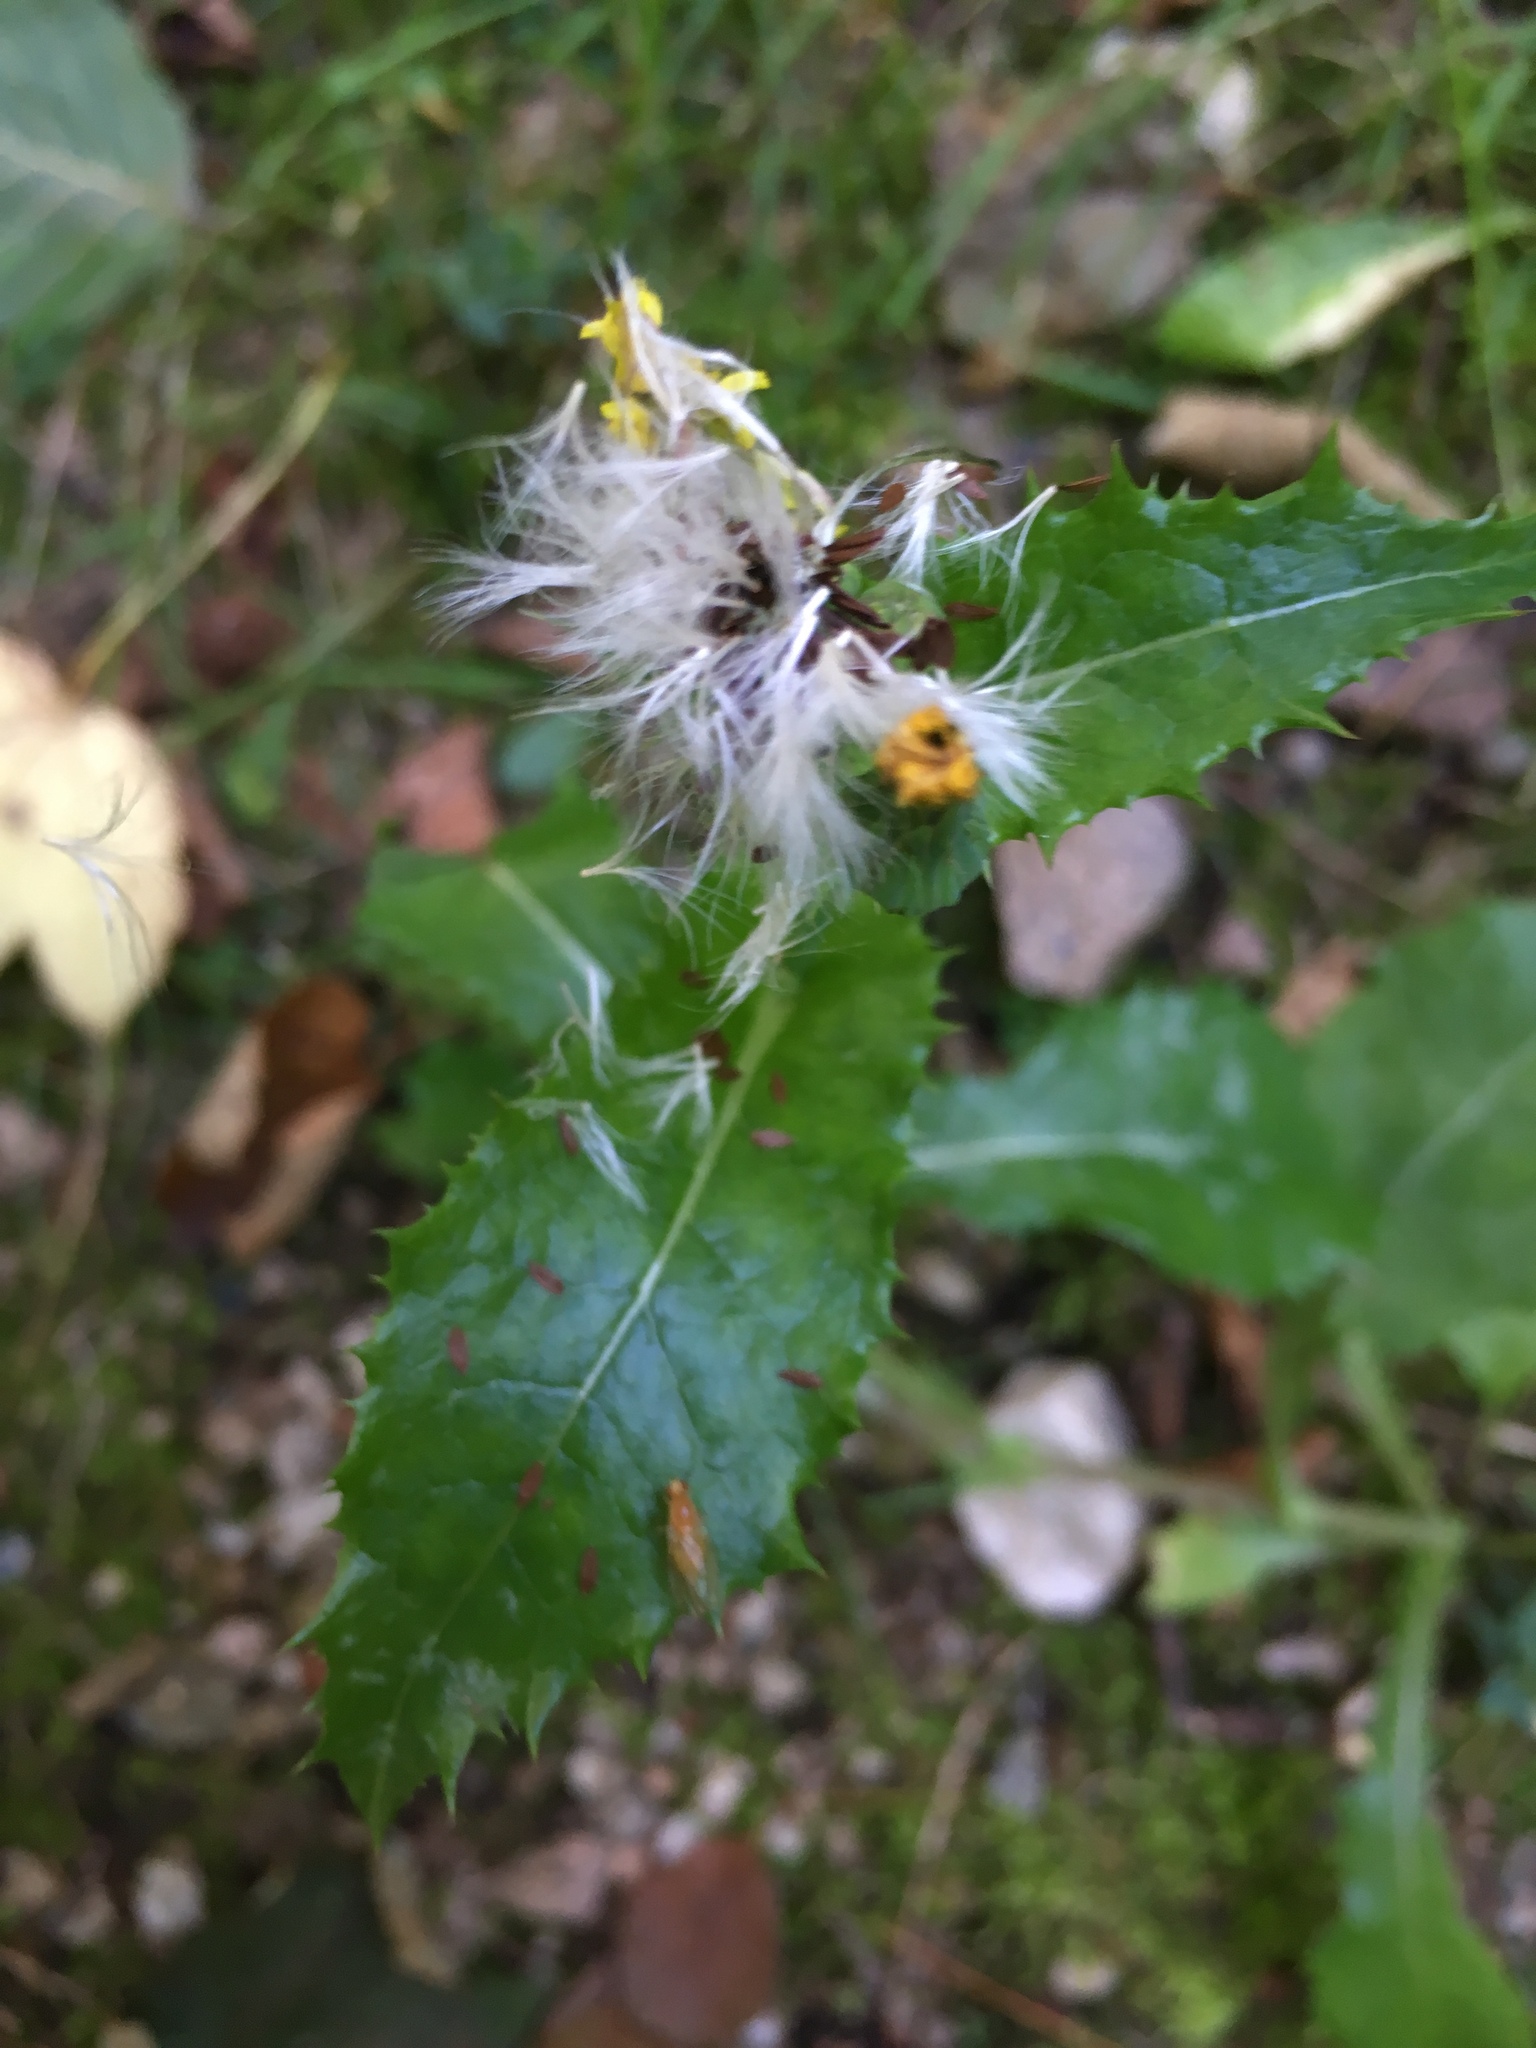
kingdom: Plantae
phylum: Tracheophyta
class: Magnoliopsida
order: Asterales
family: Asteraceae
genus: Sonchus
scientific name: Sonchus asper
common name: Prickly sow-thistle
